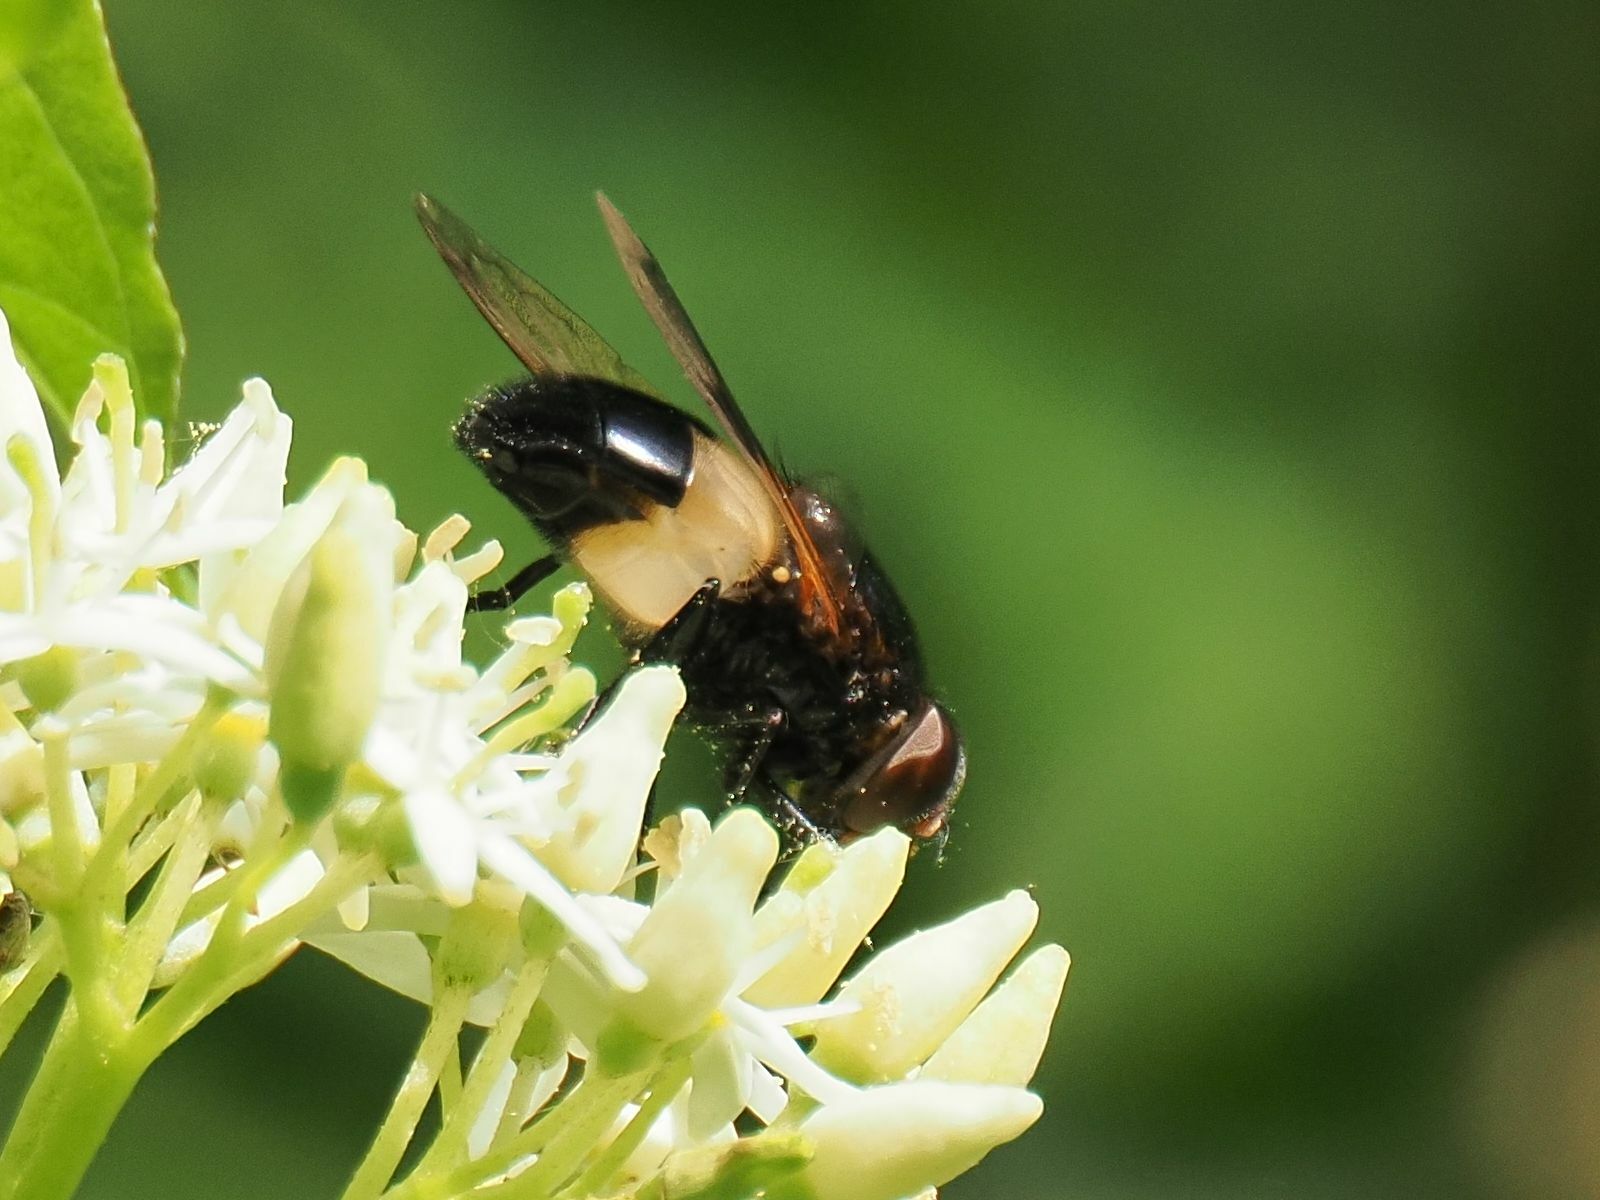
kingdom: Animalia
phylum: Arthropoda
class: Insecta
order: Diptera
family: Syrphidae
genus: Volucella
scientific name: Volucella pellucens
